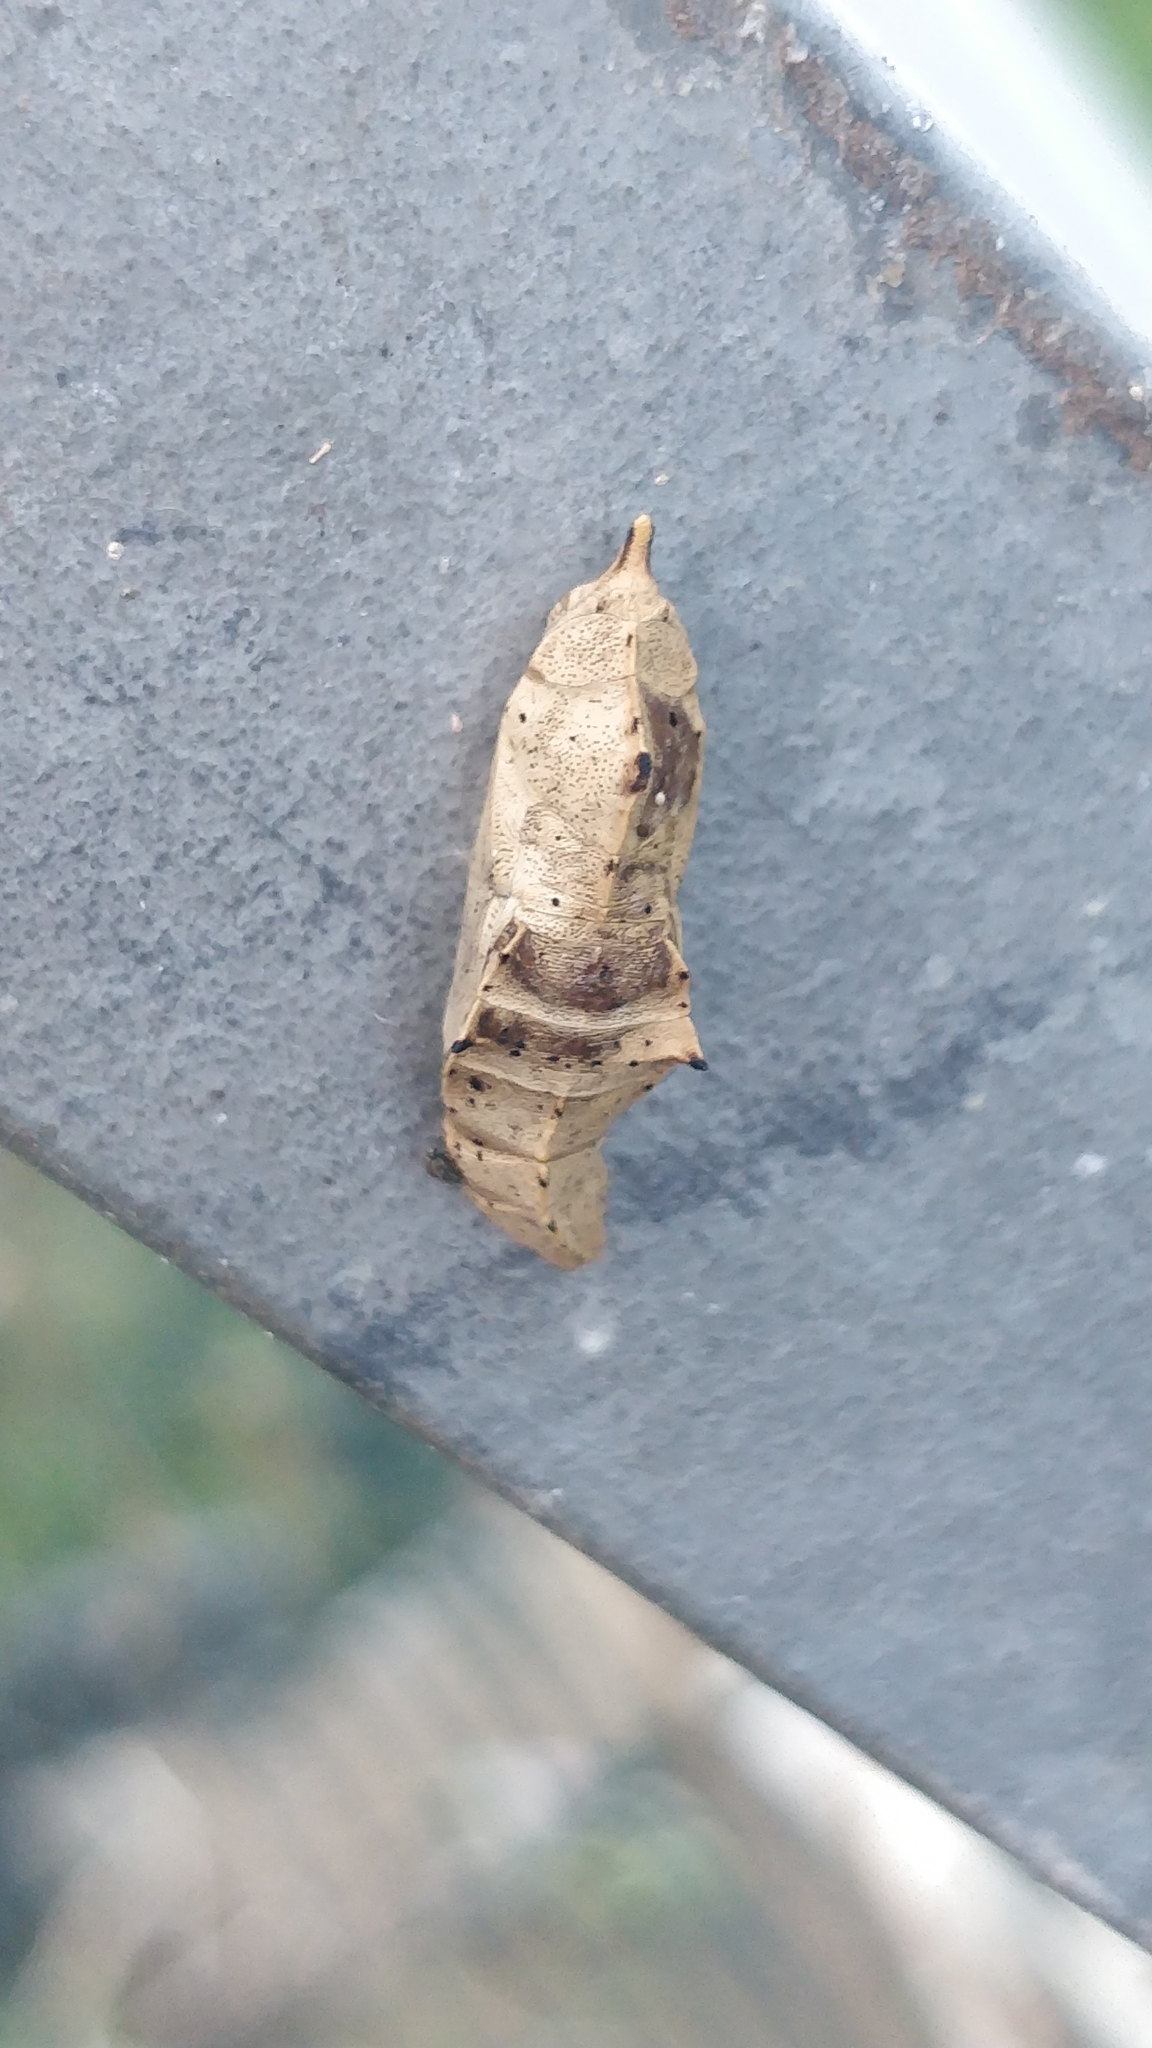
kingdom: Animalia
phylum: Arthropoda
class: Insecta
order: Lepidoptera
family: Pieridae
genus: Pieris
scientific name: Pieris rapae
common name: Small white
